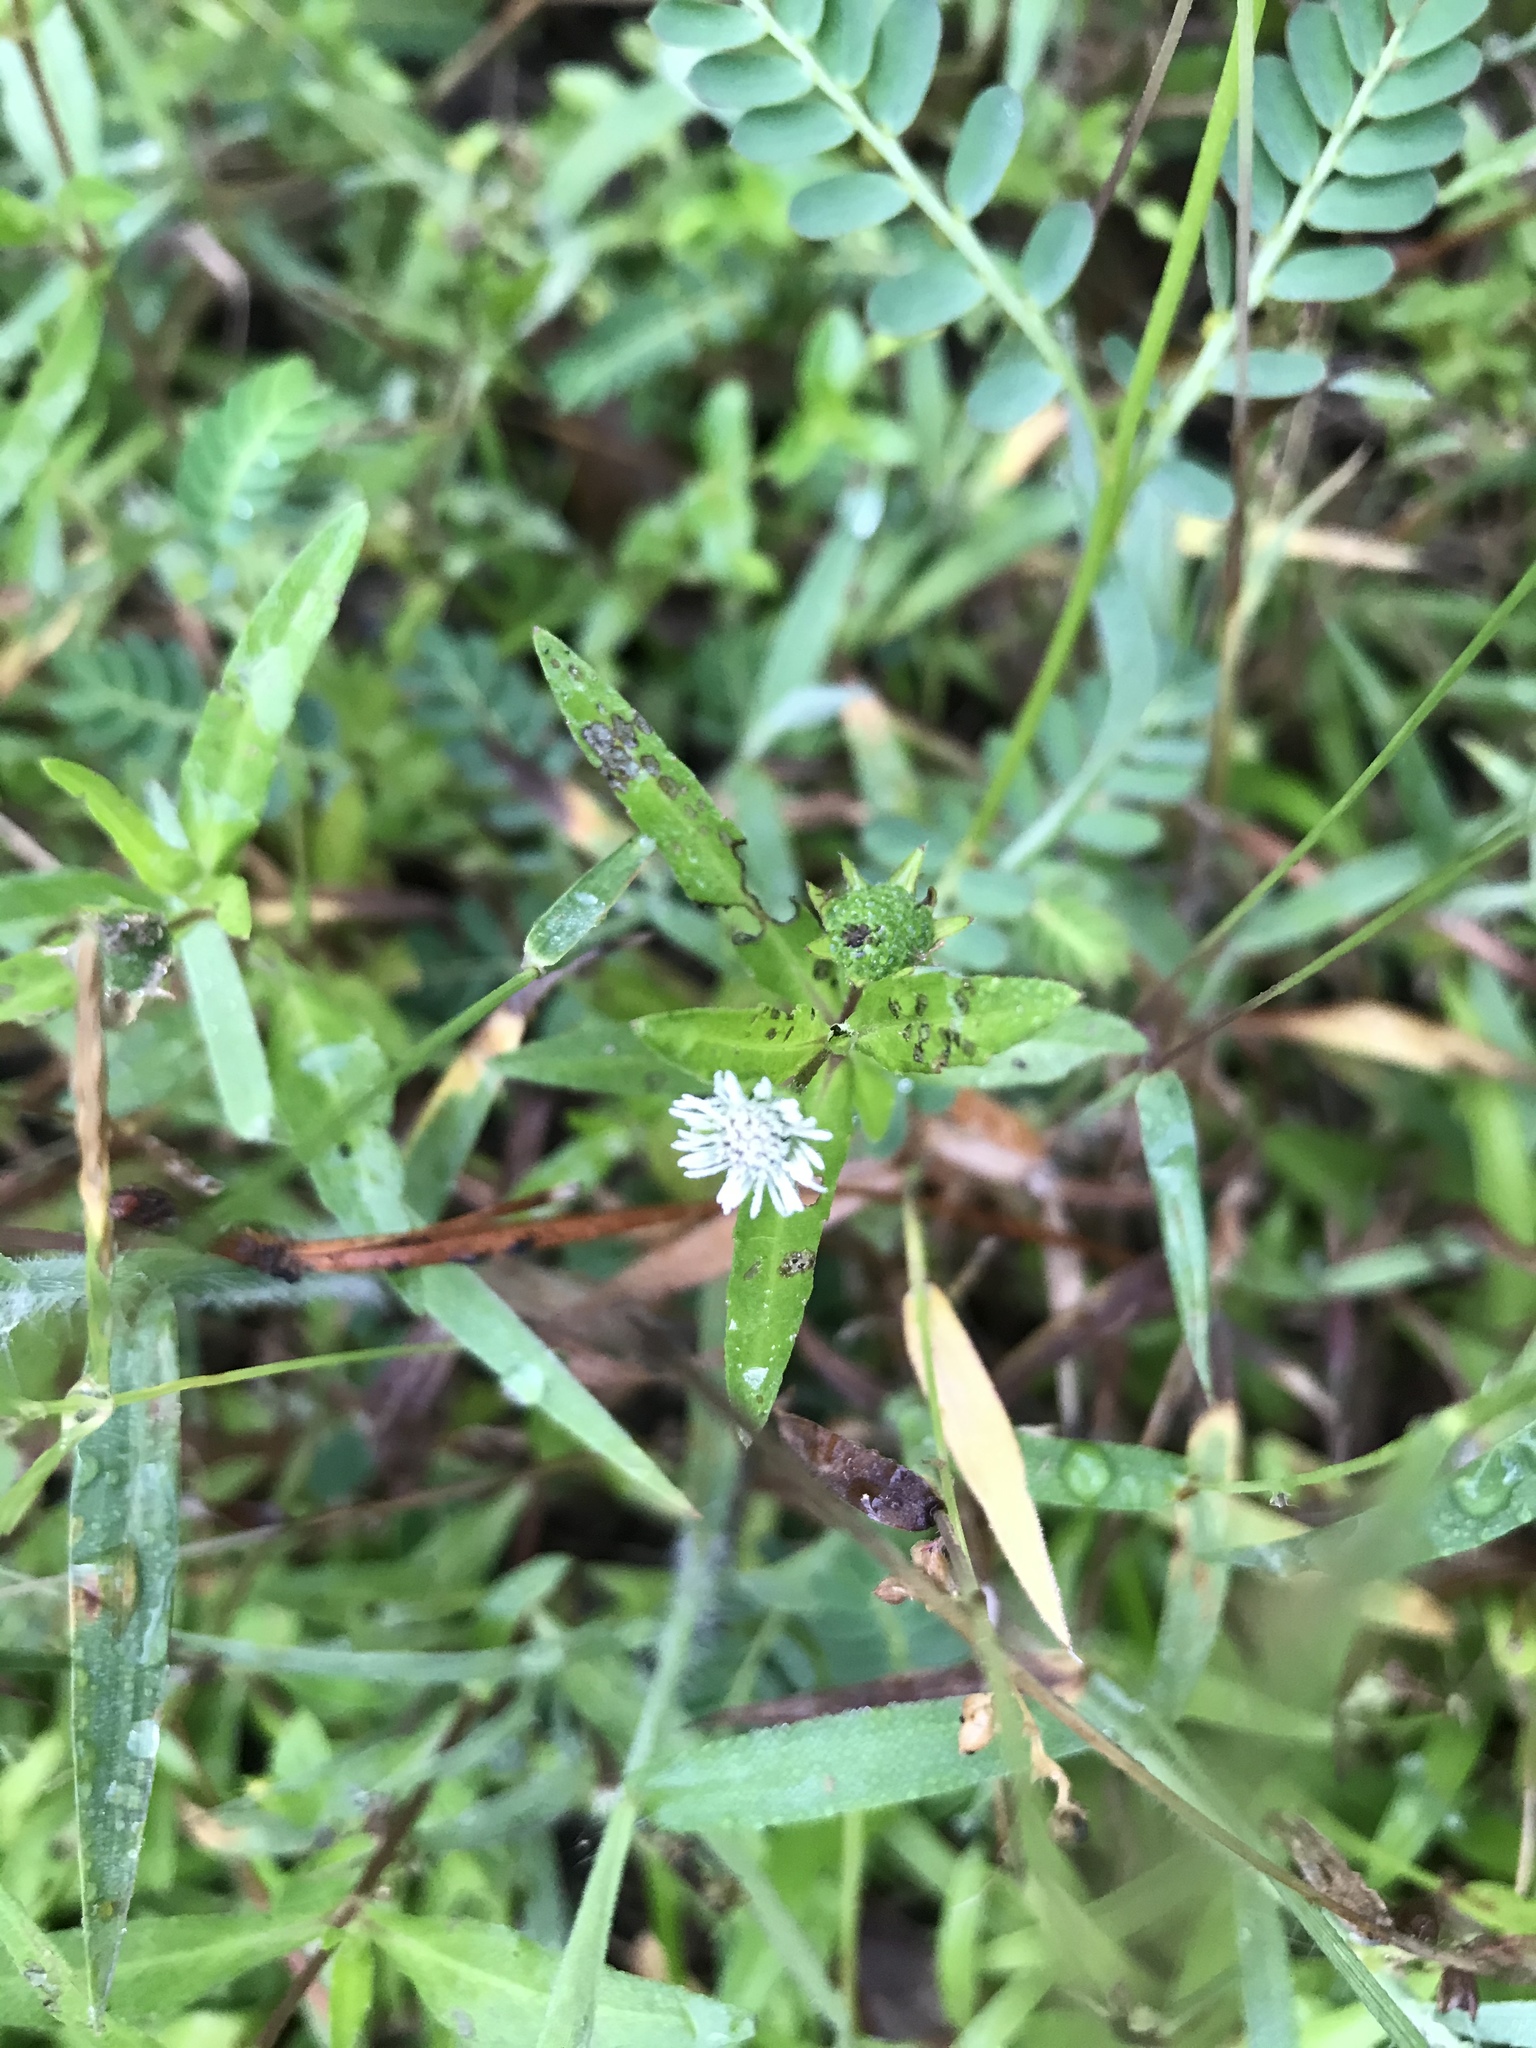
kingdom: Plantae
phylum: Tracheophyta
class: Magnoliopsida
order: Asterales
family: Asteraceae
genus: Eclipta
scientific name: Eclipta prostrata
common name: False daisy
